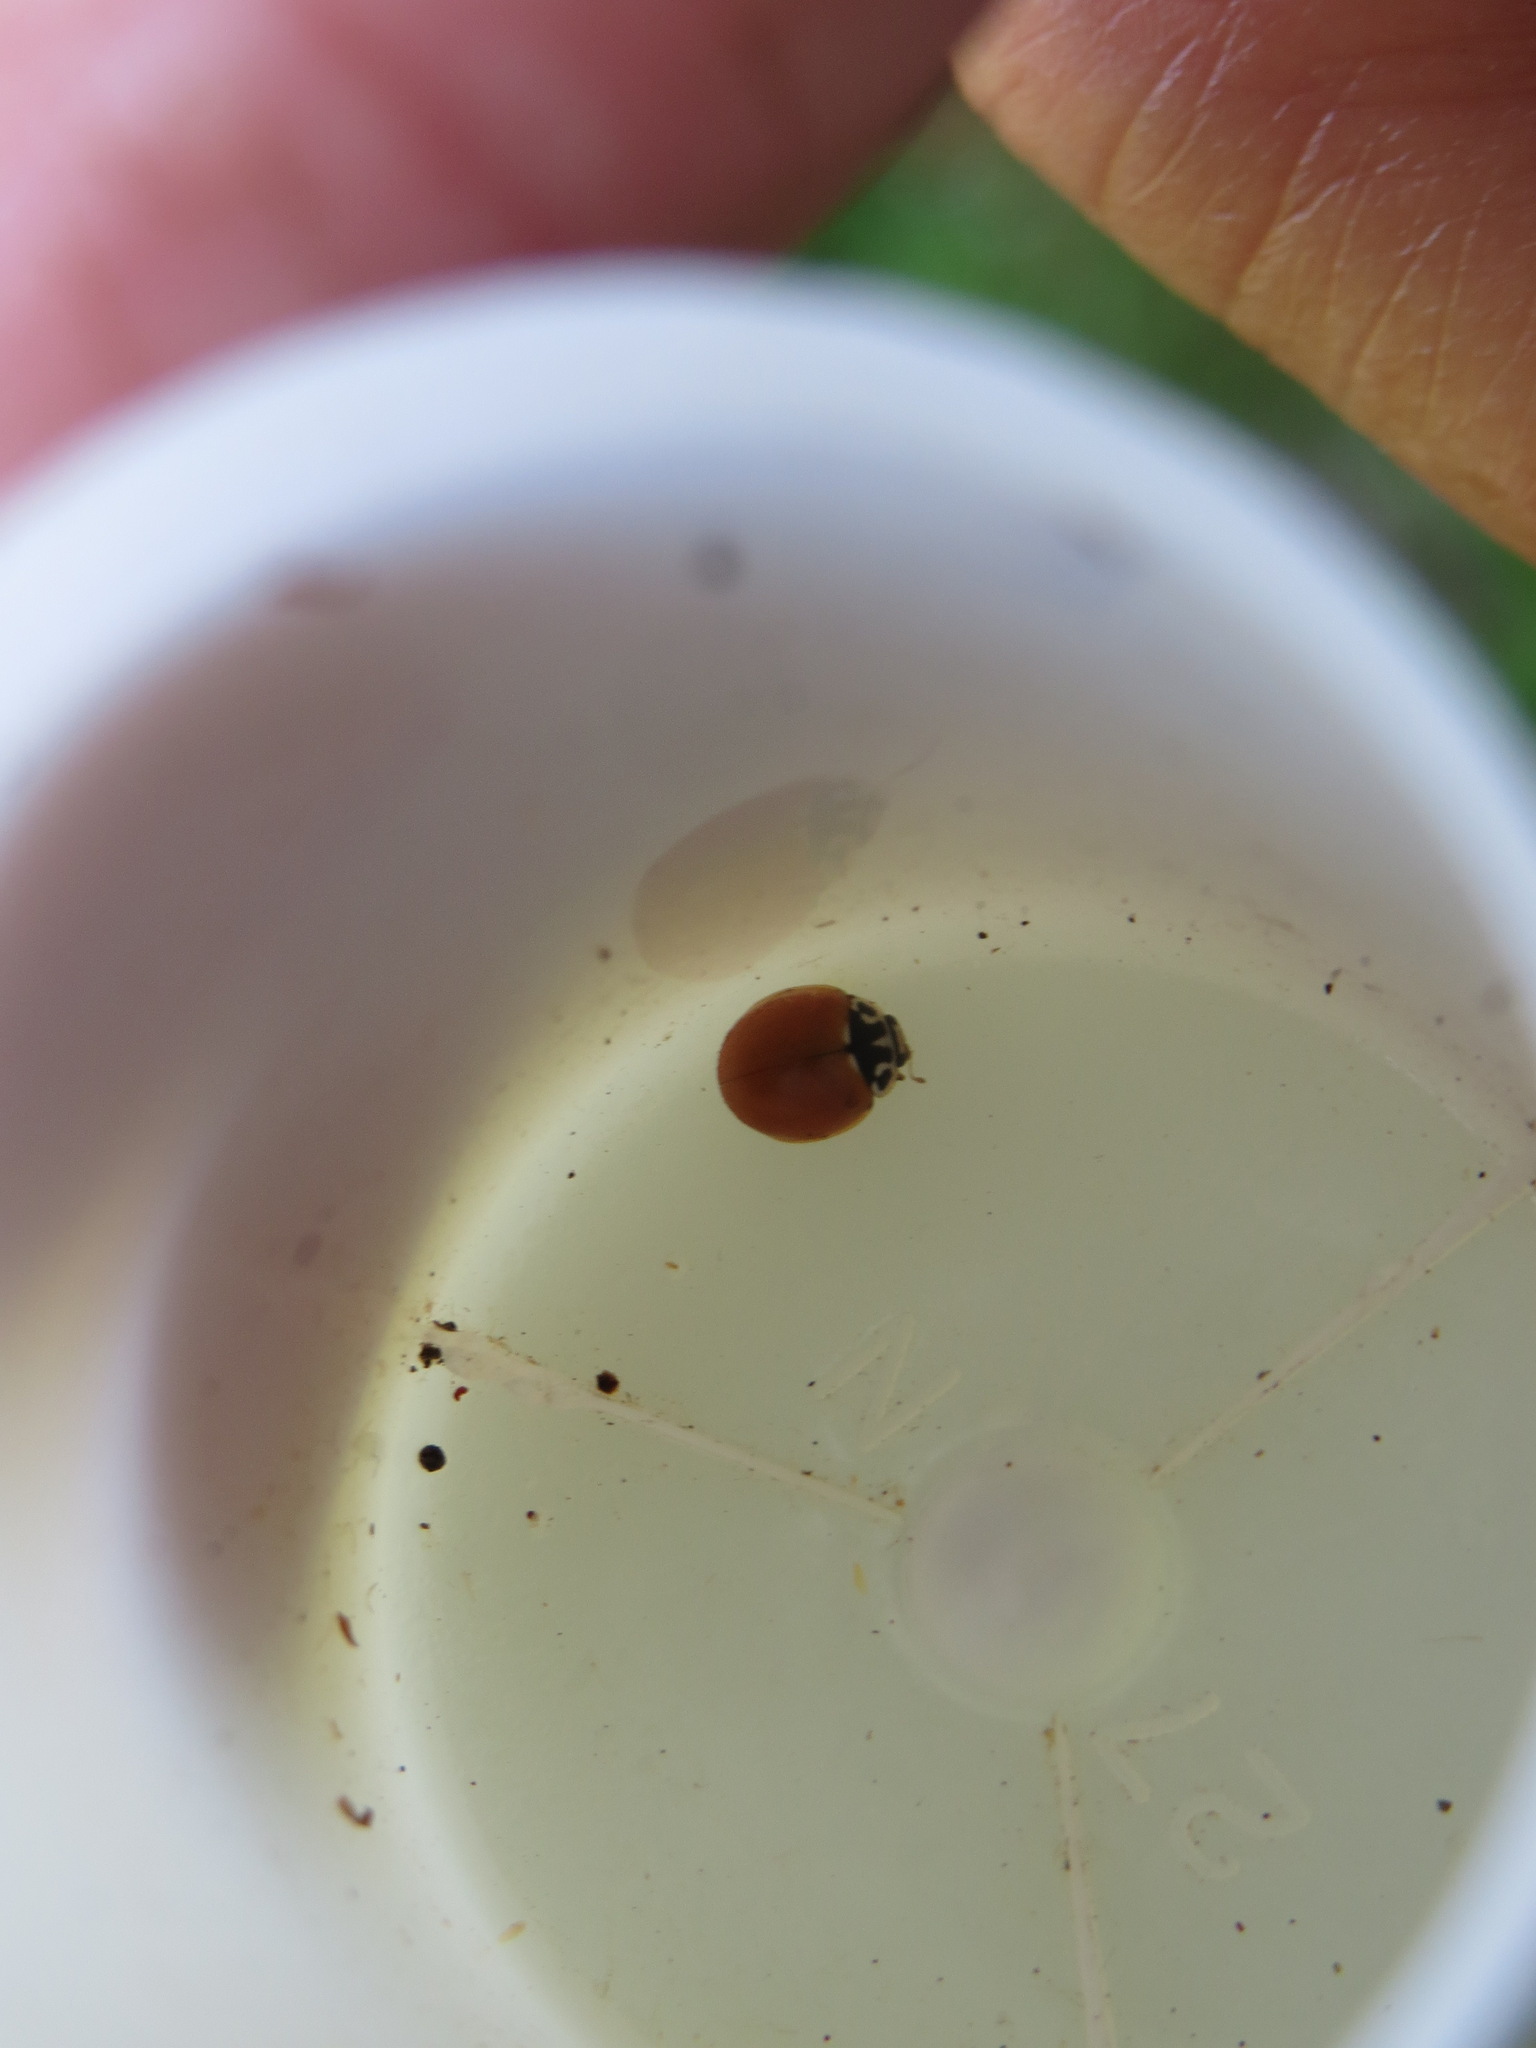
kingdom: Animalia
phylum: Arthropoda
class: Insecta
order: Coleoptera
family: Coccinellidae
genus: Cycloneda
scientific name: Cycloneda polita
